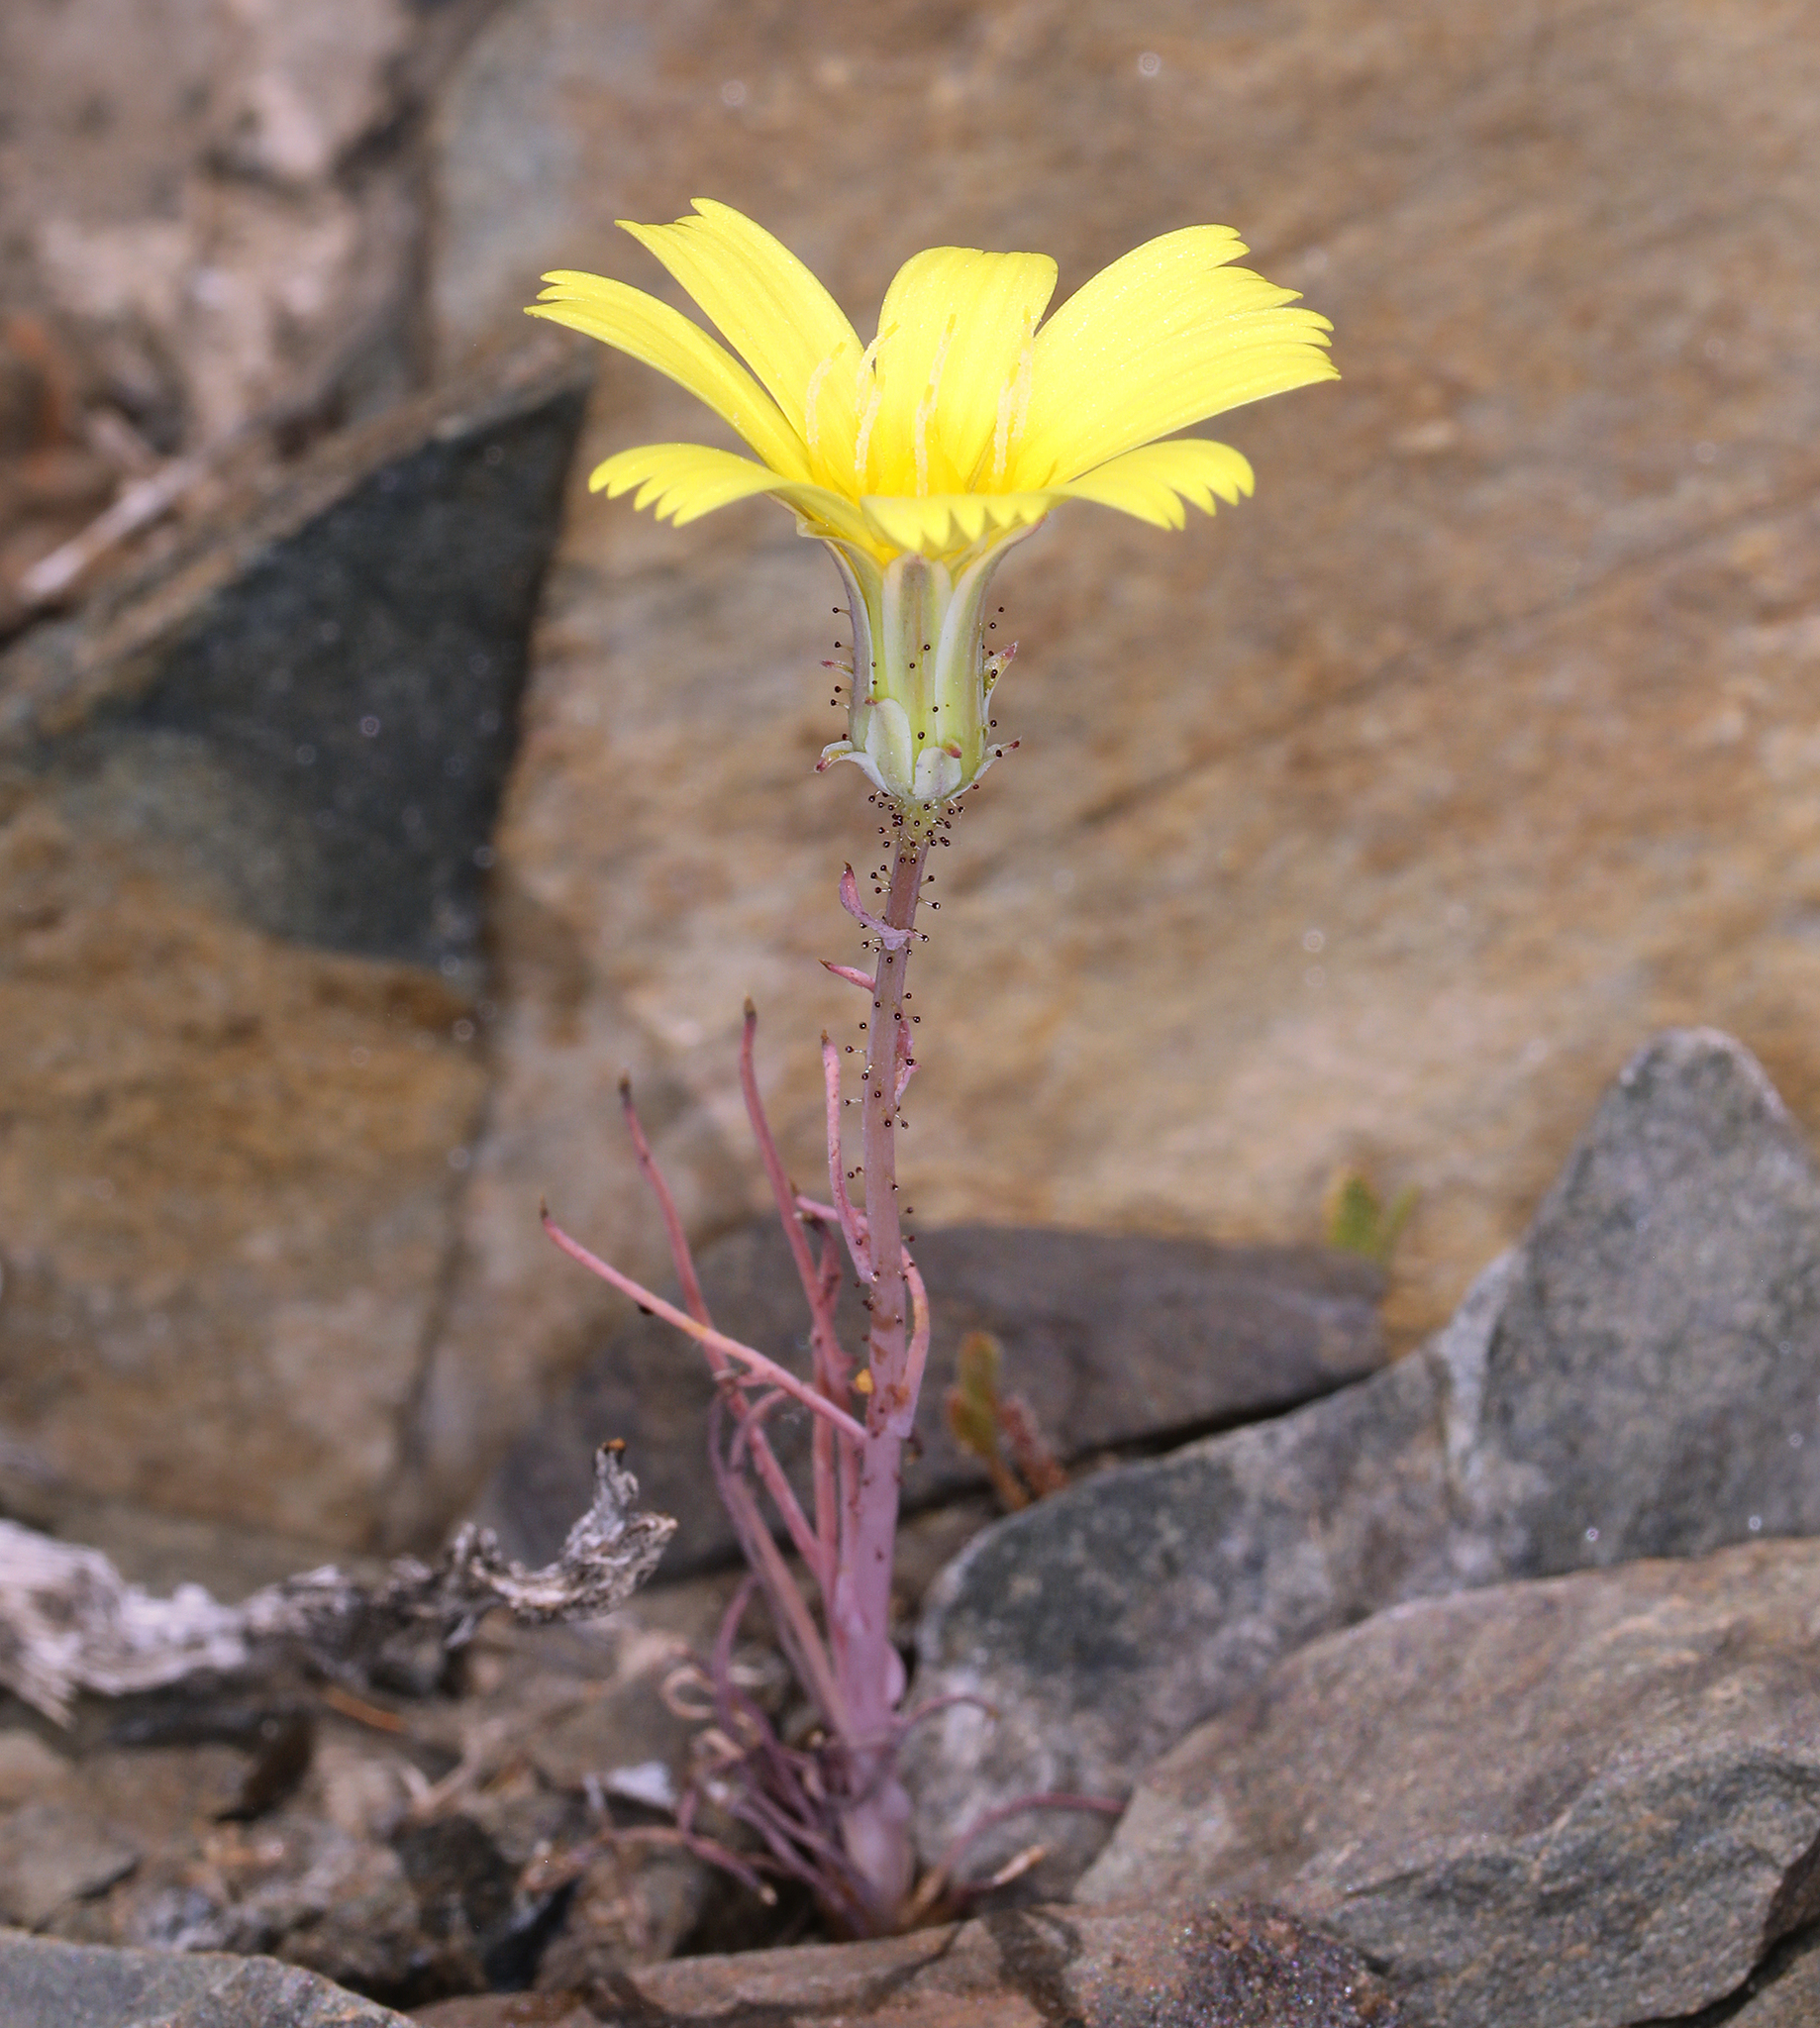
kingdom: Plantae
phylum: Tracheophyta
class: Magnoliopsida
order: Asterales
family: Asteraceae
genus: Calycoseris
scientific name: Calycoseris parryi
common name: Yellow tackstem
